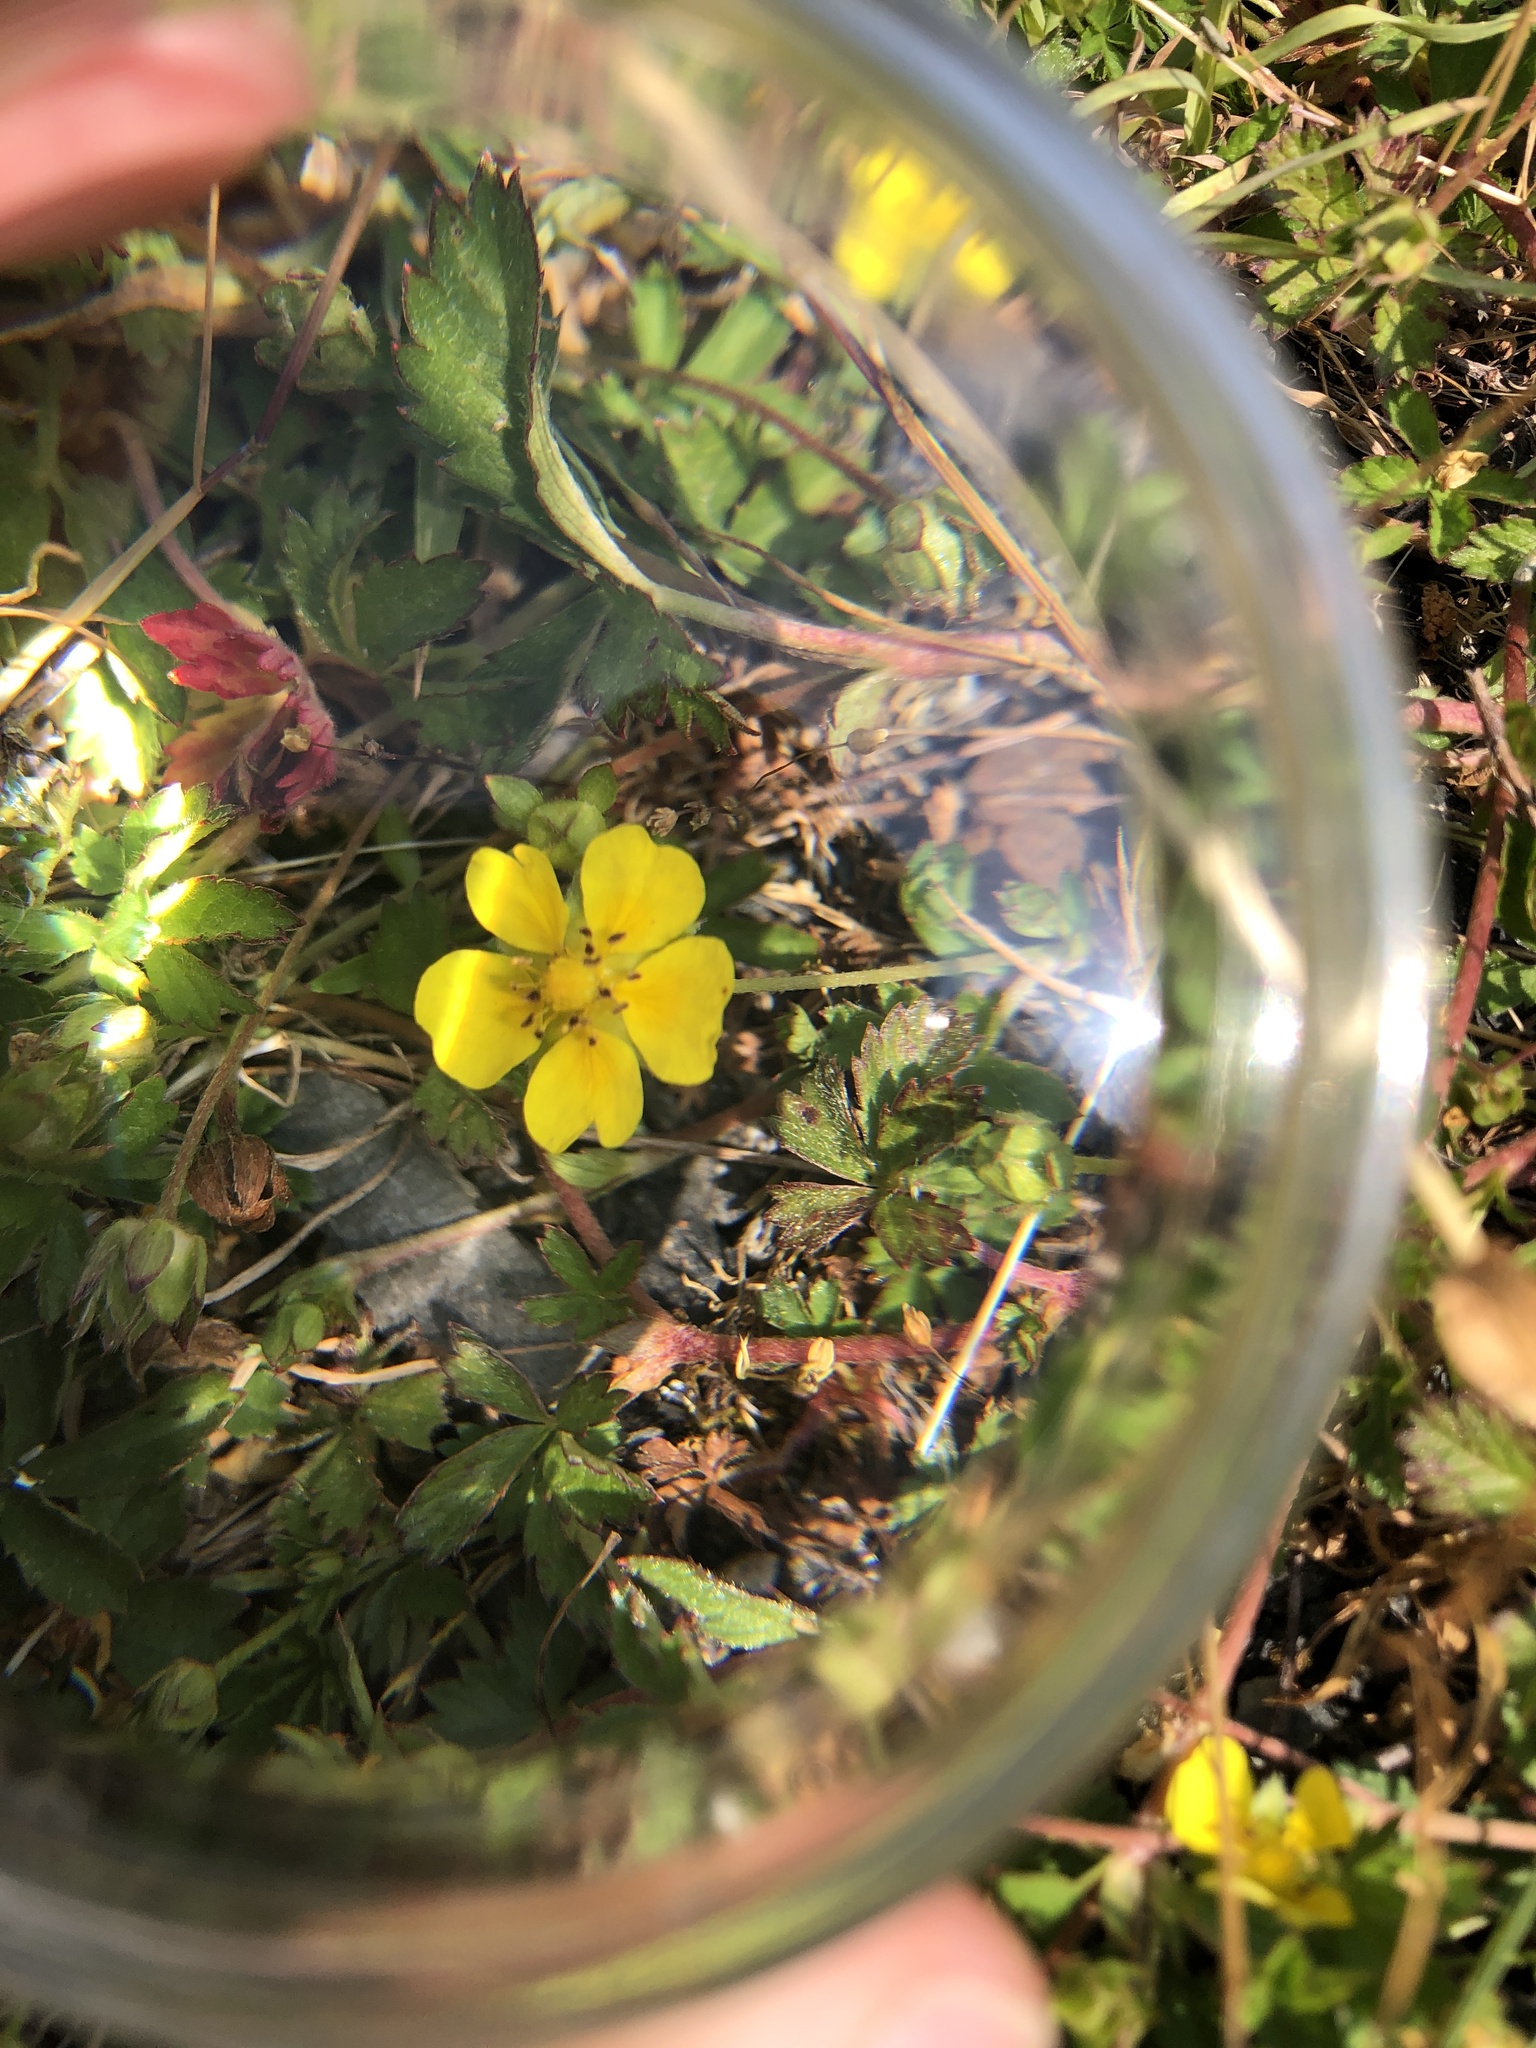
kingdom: Plantae
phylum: Tracheophyta
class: Magnoliopsida
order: Rosales
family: Rosaceae
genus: Potentilla
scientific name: Potentilla reptans
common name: Creeping cinquefoil
